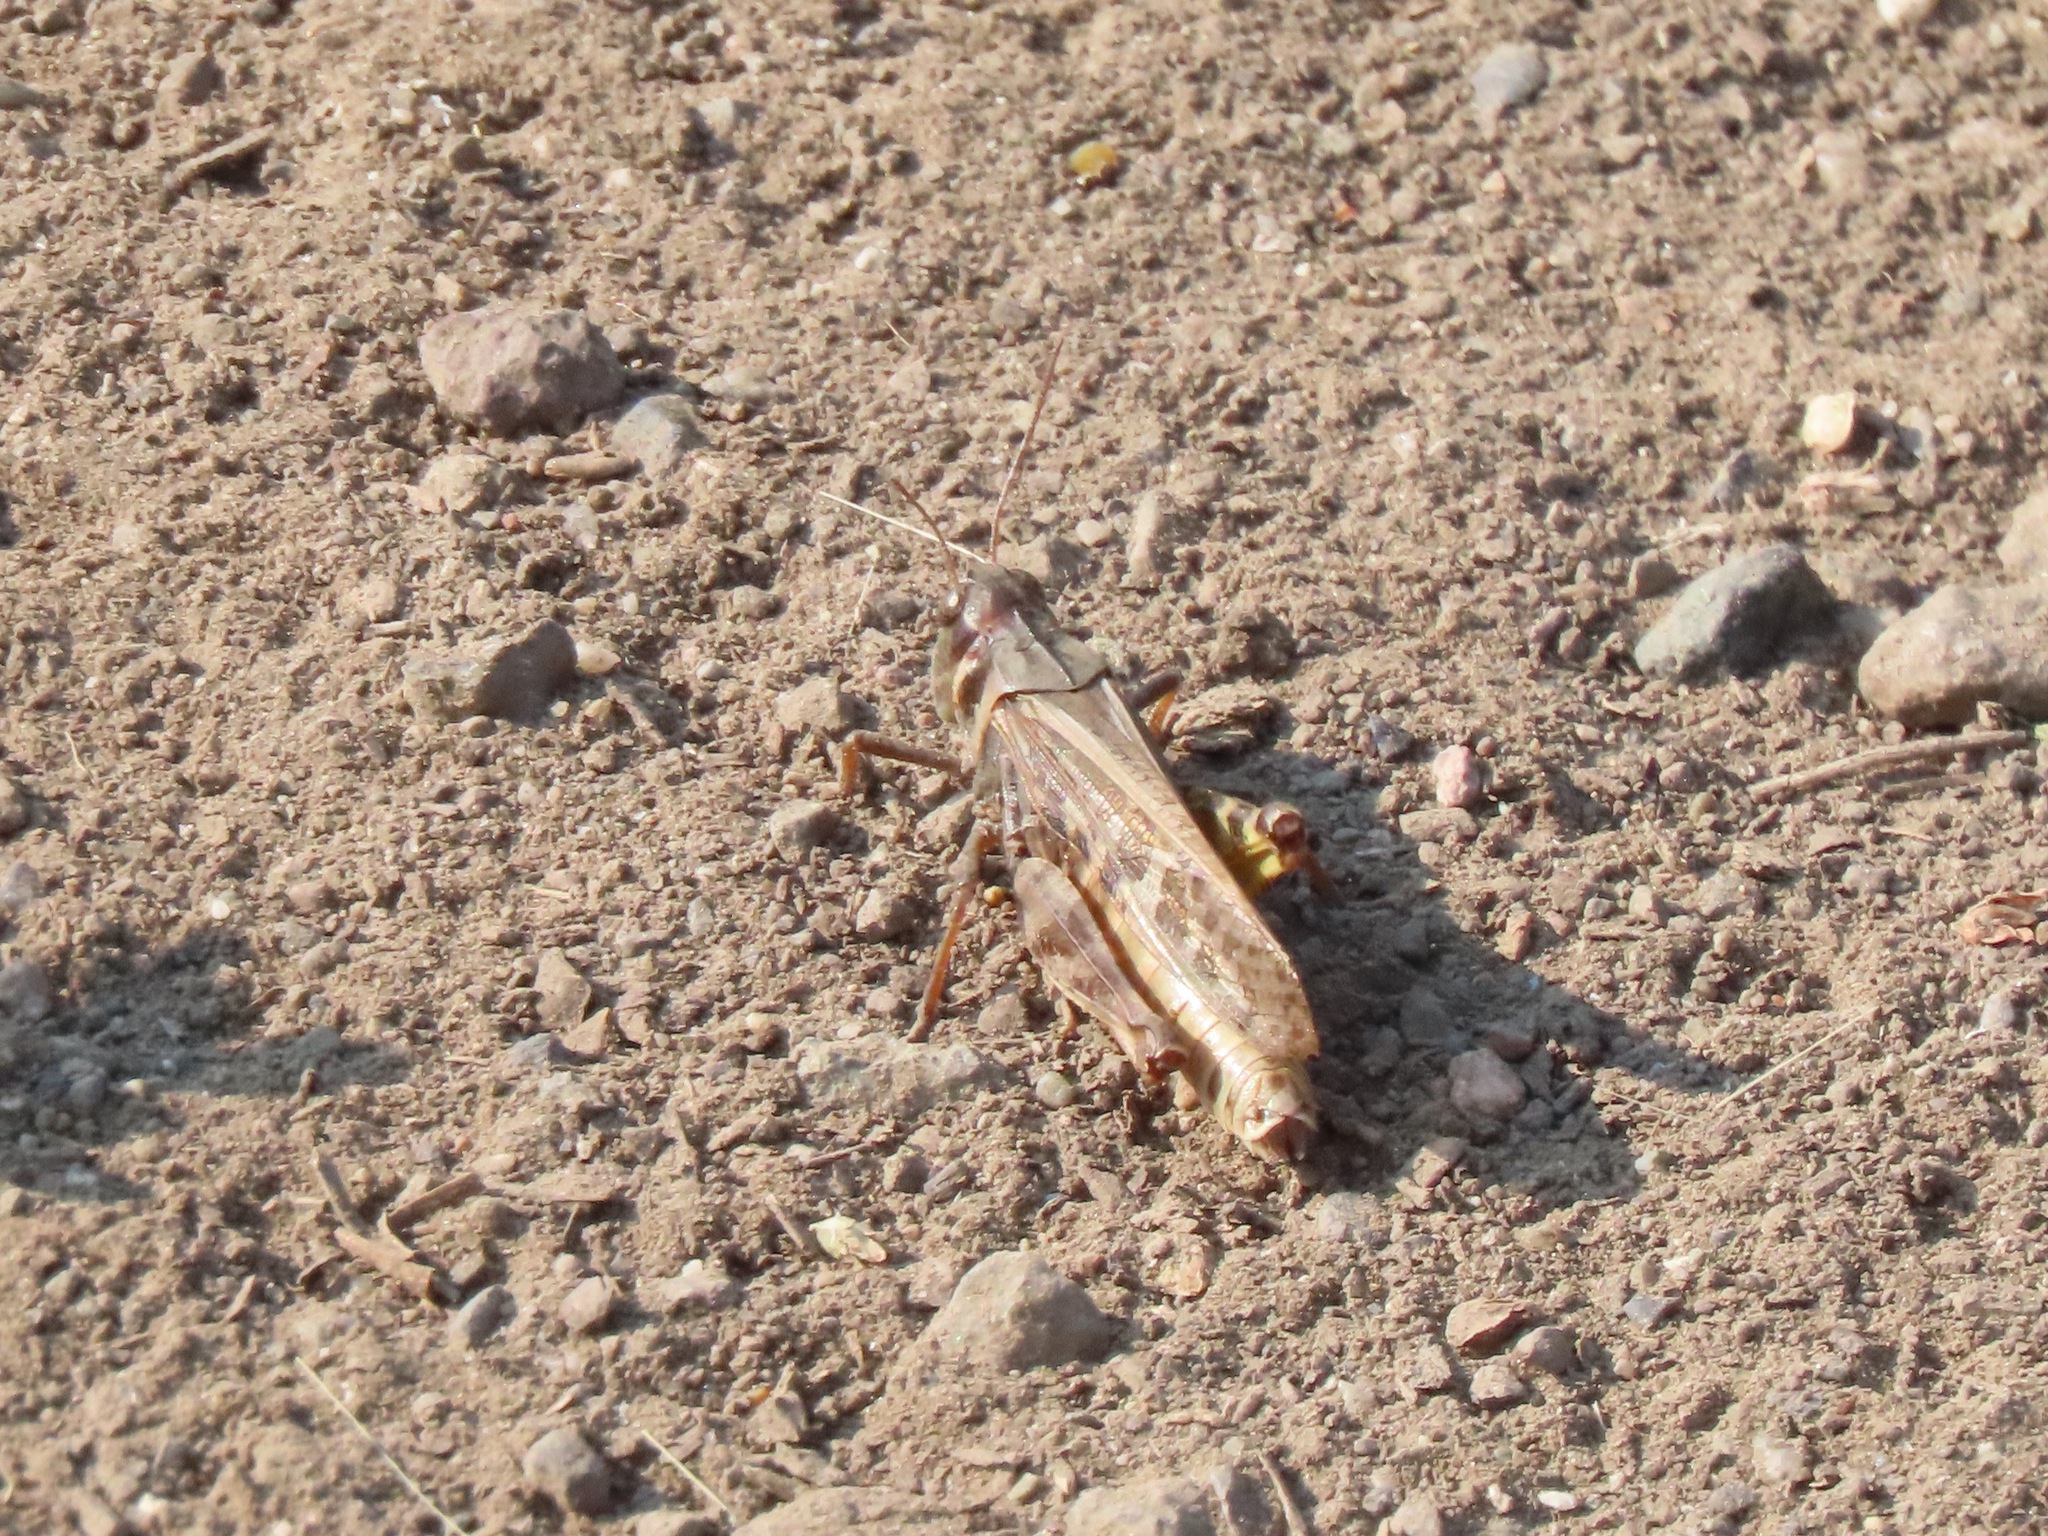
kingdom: Animalia
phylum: Arthropoda
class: Insecta
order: Orthoptera
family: Acrididae
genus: Camnula
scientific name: Camnula pellucida
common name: Clear-winged grasshopper
